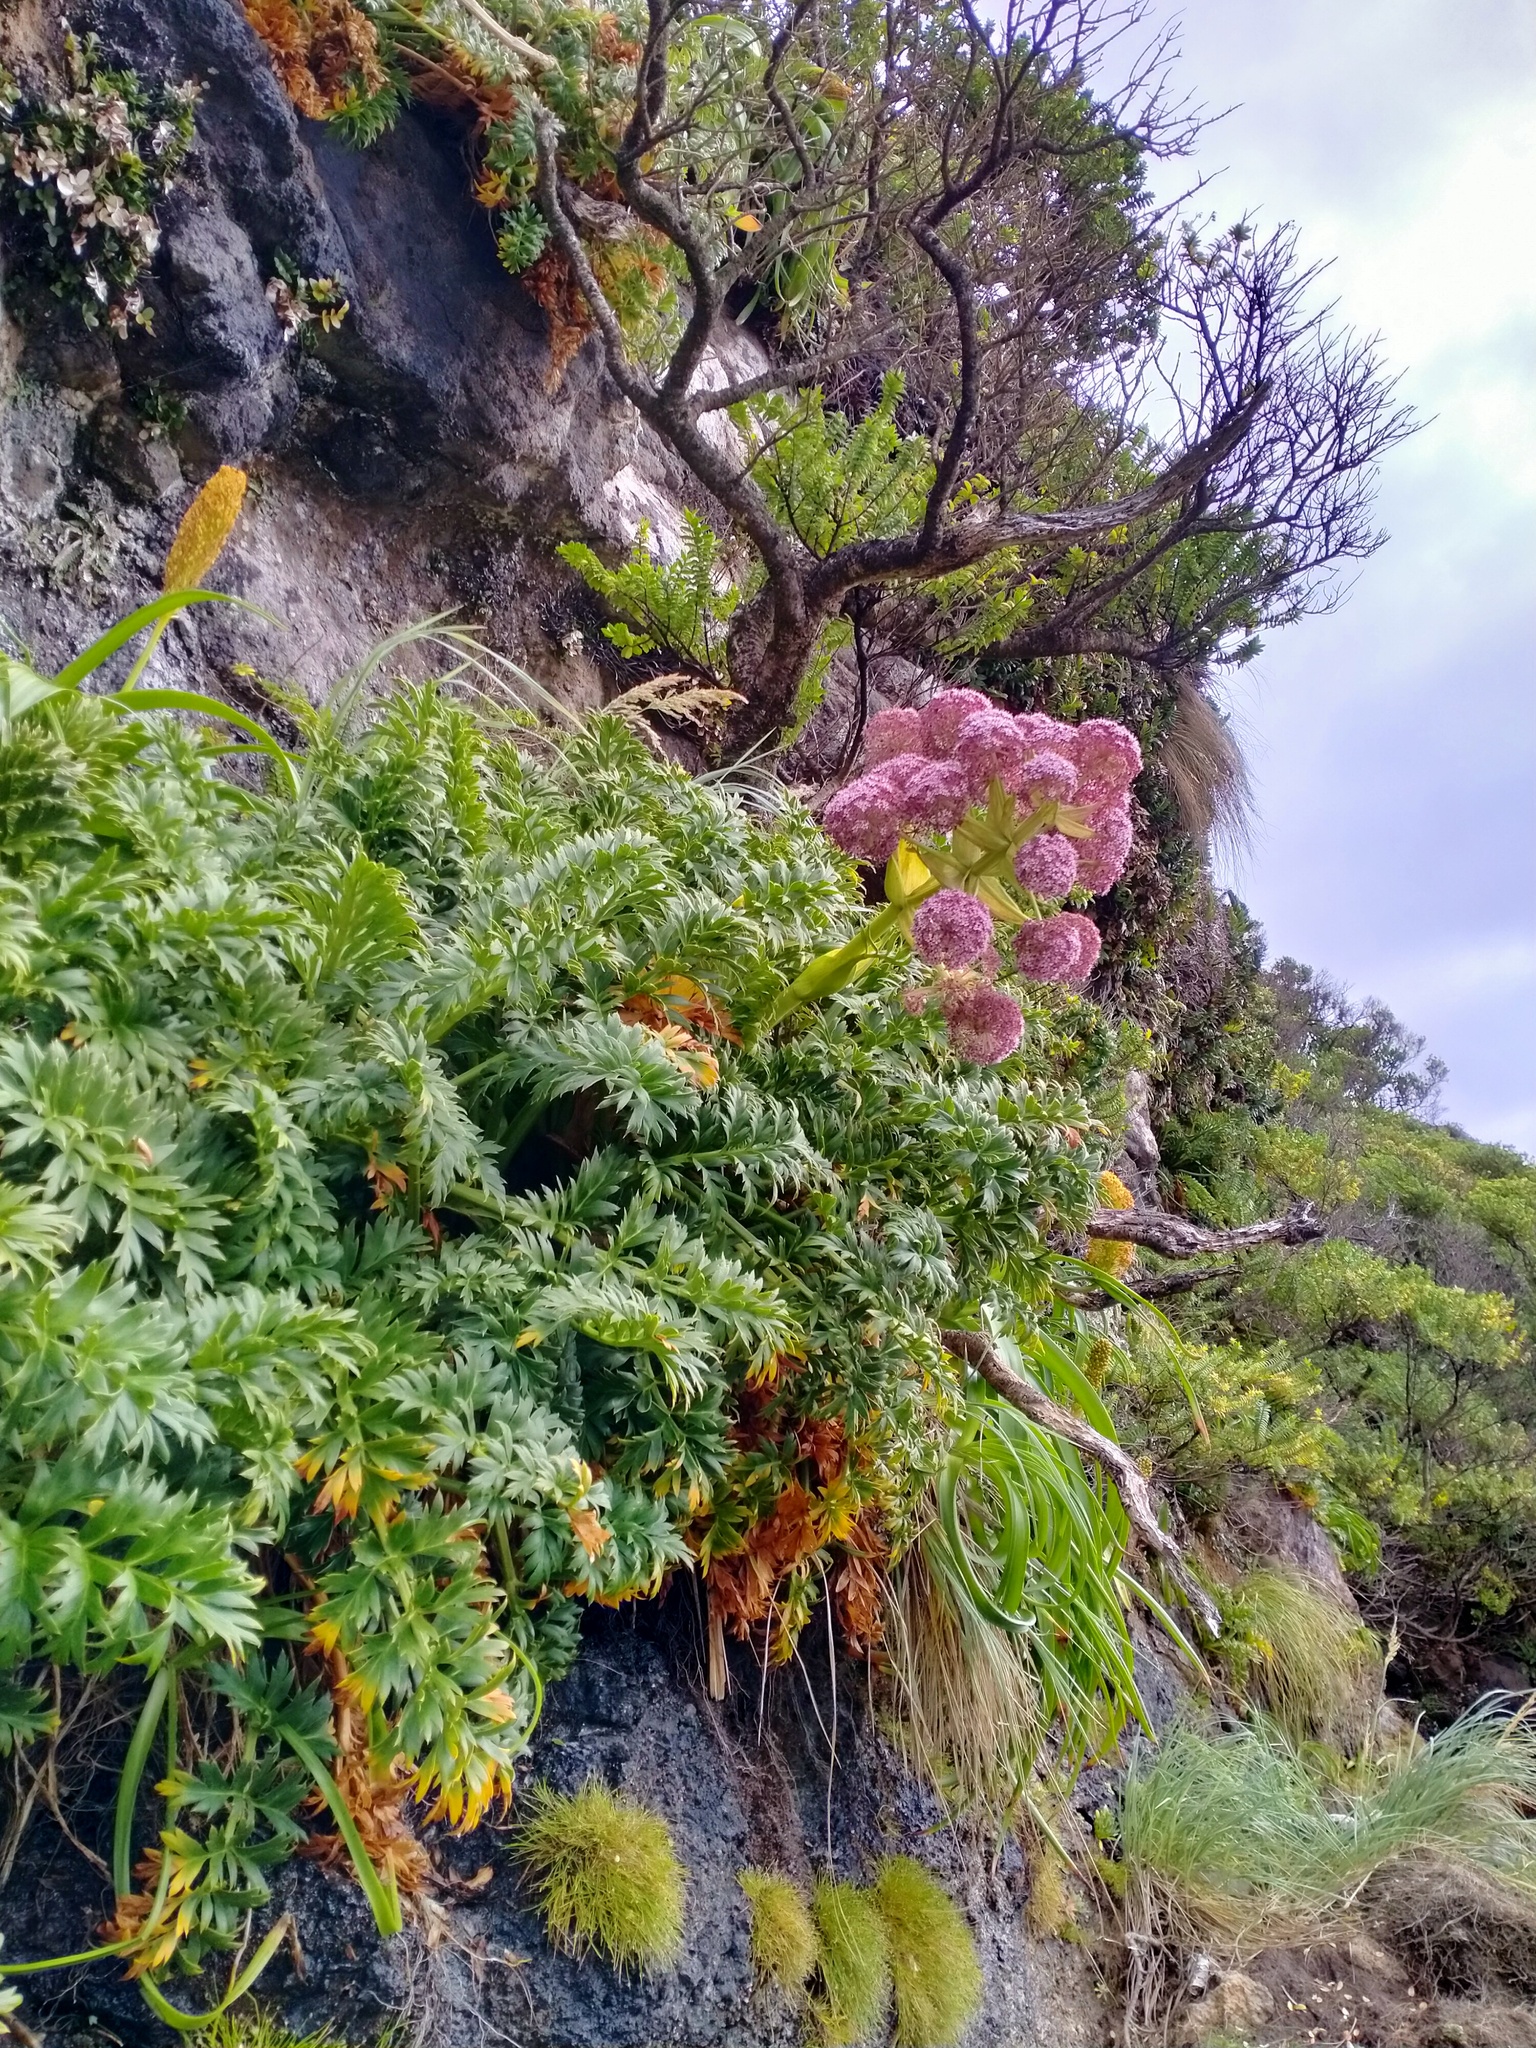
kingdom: Plantae
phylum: Tracheophyta
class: Magnoliopsida
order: Apiales
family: Apiaceae
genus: Anisotome
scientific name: Anisotome latifolia
